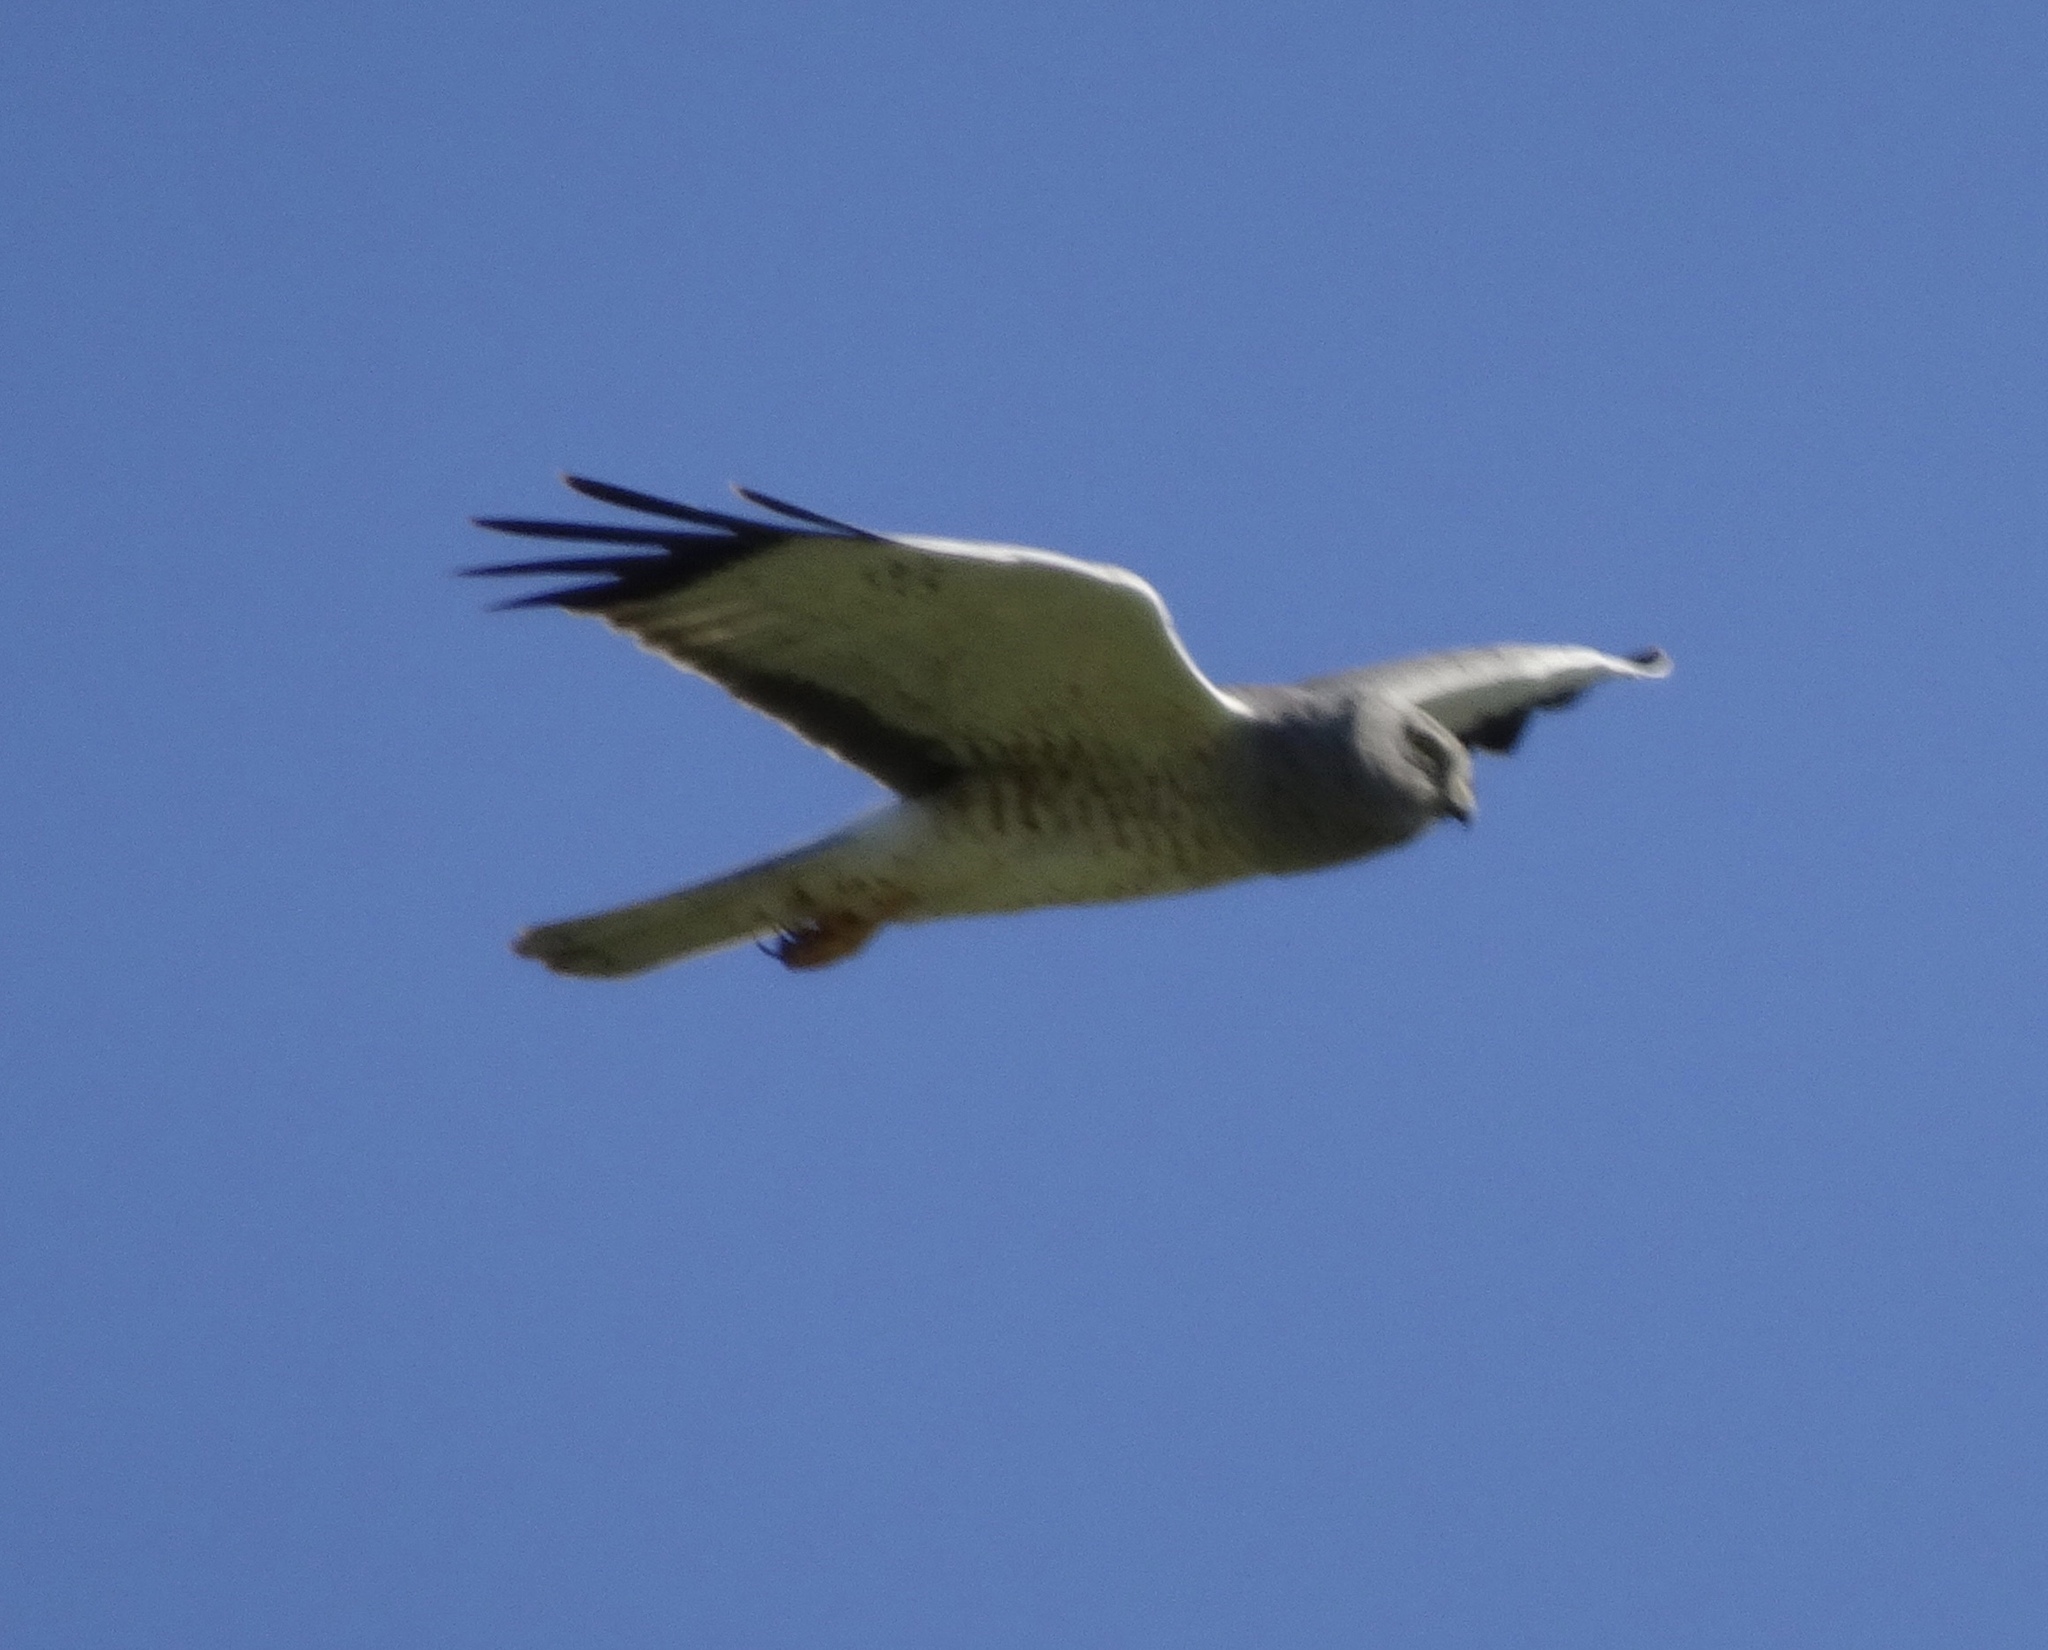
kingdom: Animalia
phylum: Chordata
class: Aves
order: Accipitriformes
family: Accipitridae
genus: Circus
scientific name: Circus cyaneus
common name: Hen harrier
